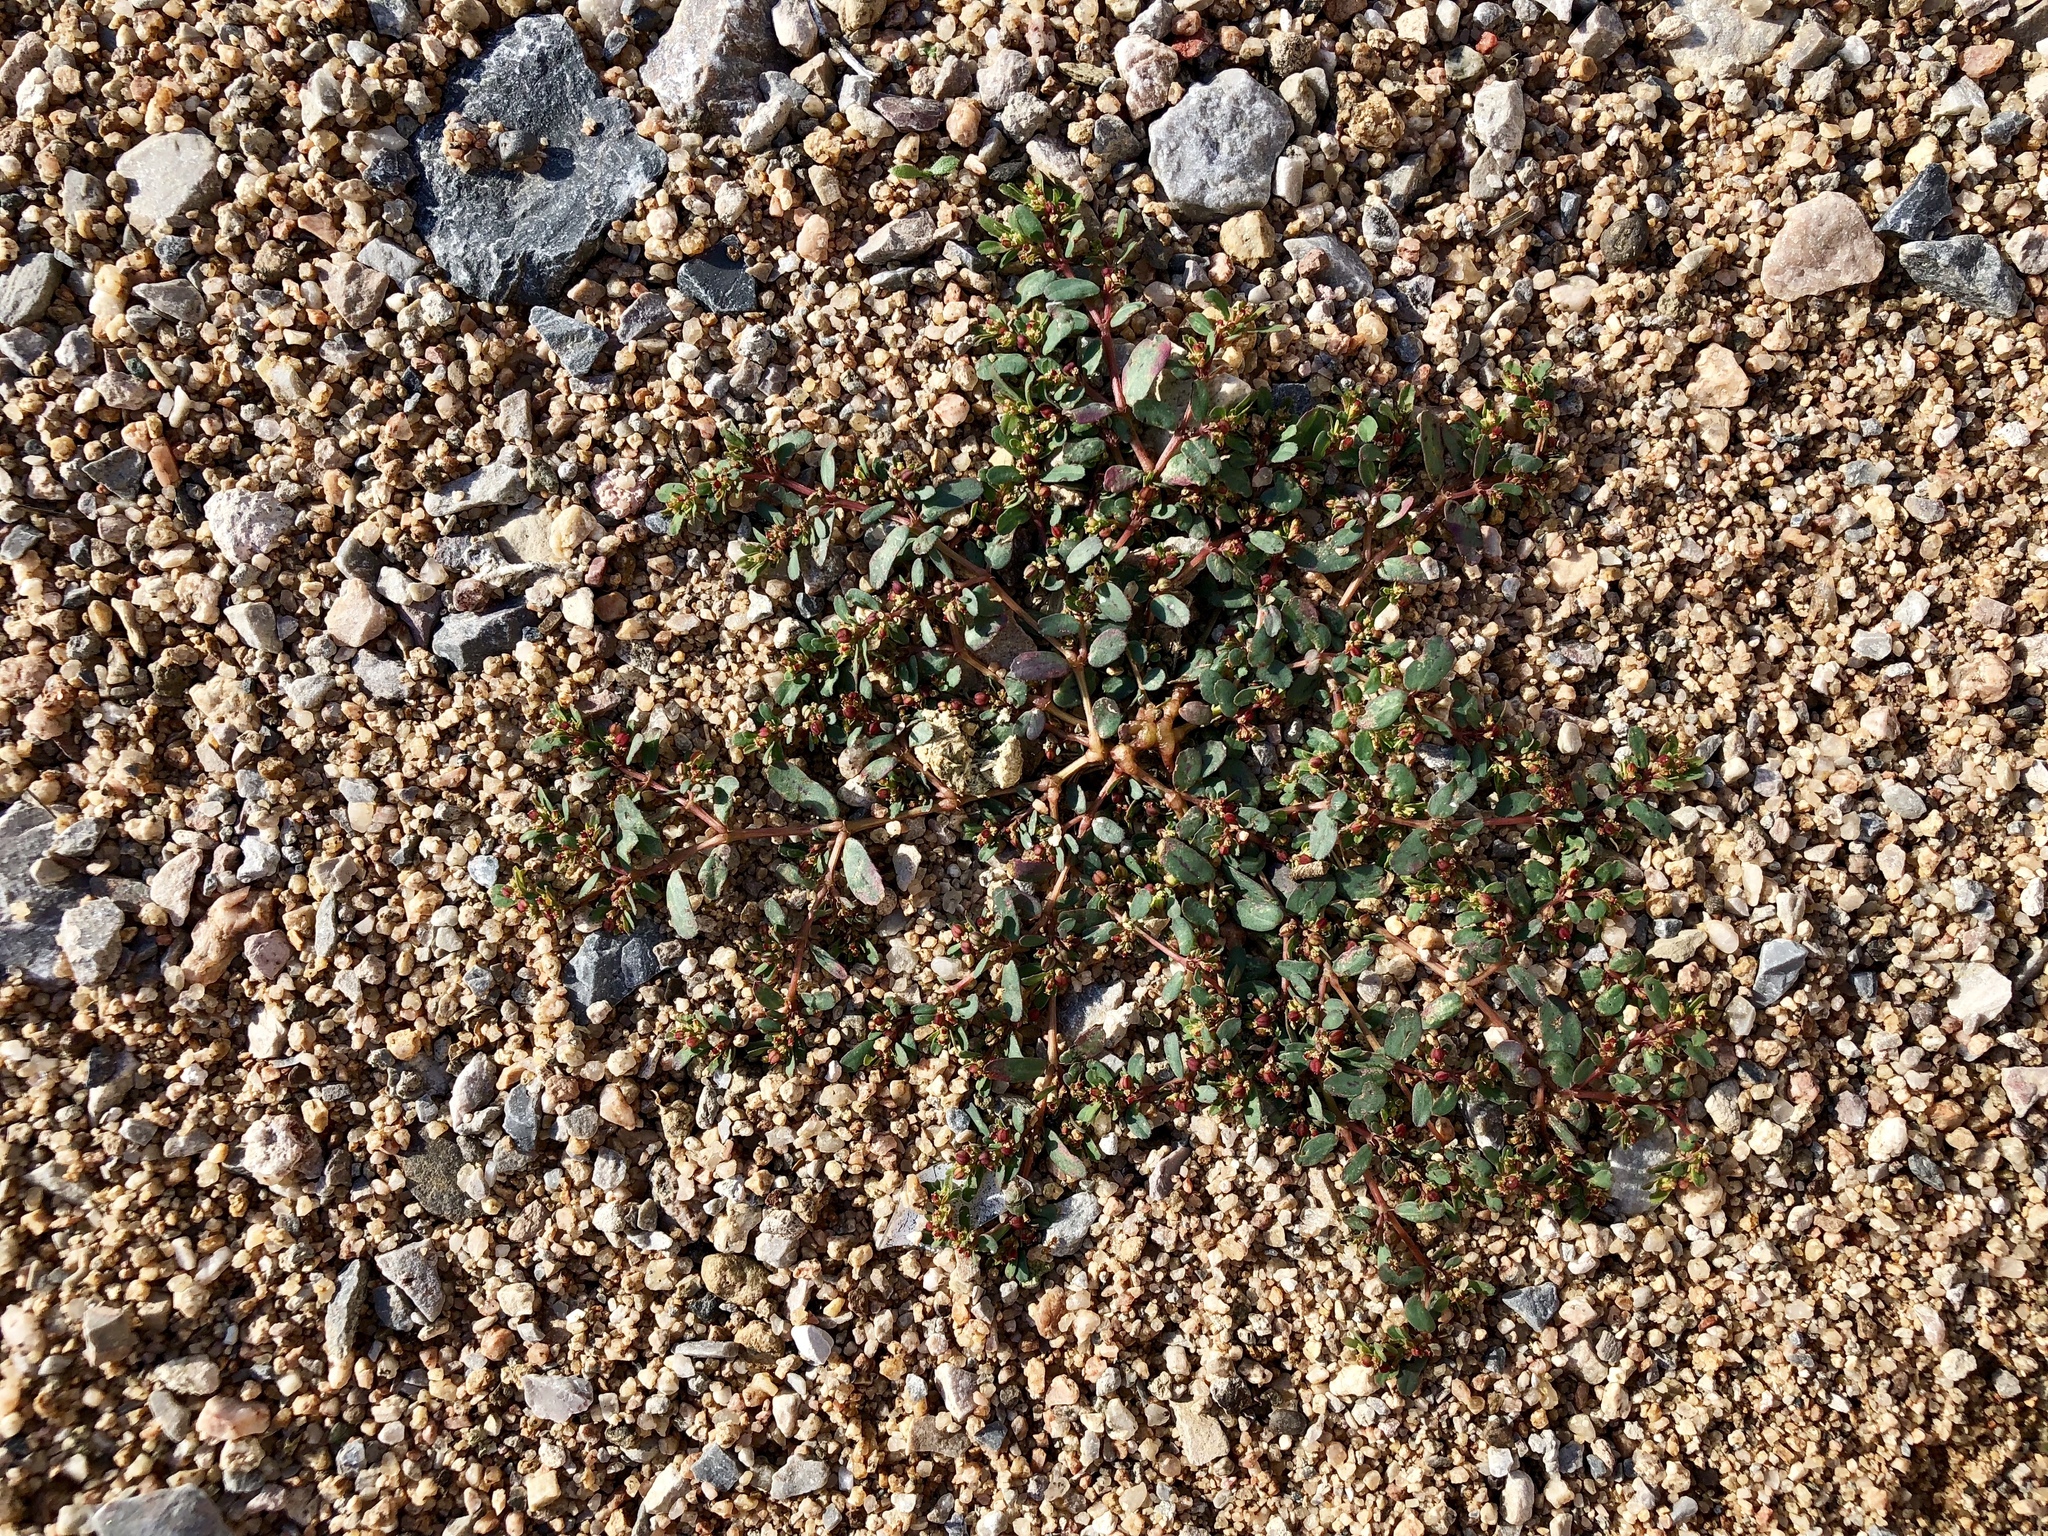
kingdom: Plantae
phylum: Tracheophyta
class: Magnoliopsida
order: Malpighiales
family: Euphorbiaceae
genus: Euphorbia
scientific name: Euphorbia serpillifolia
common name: Thyme-leaf spurge
